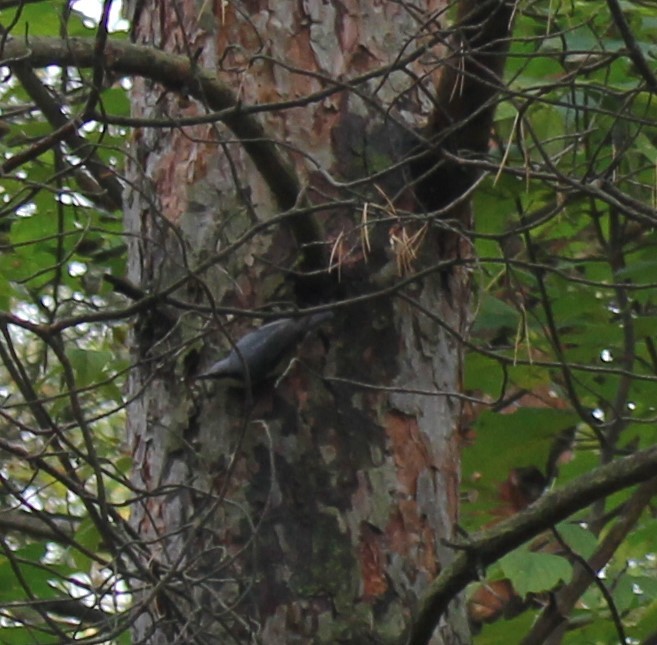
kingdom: Animalia
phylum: Chordata
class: Aves
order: Passeriformes
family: Sittidae
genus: Sitta
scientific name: Sitta europaea
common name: Eurasian nuthatch
